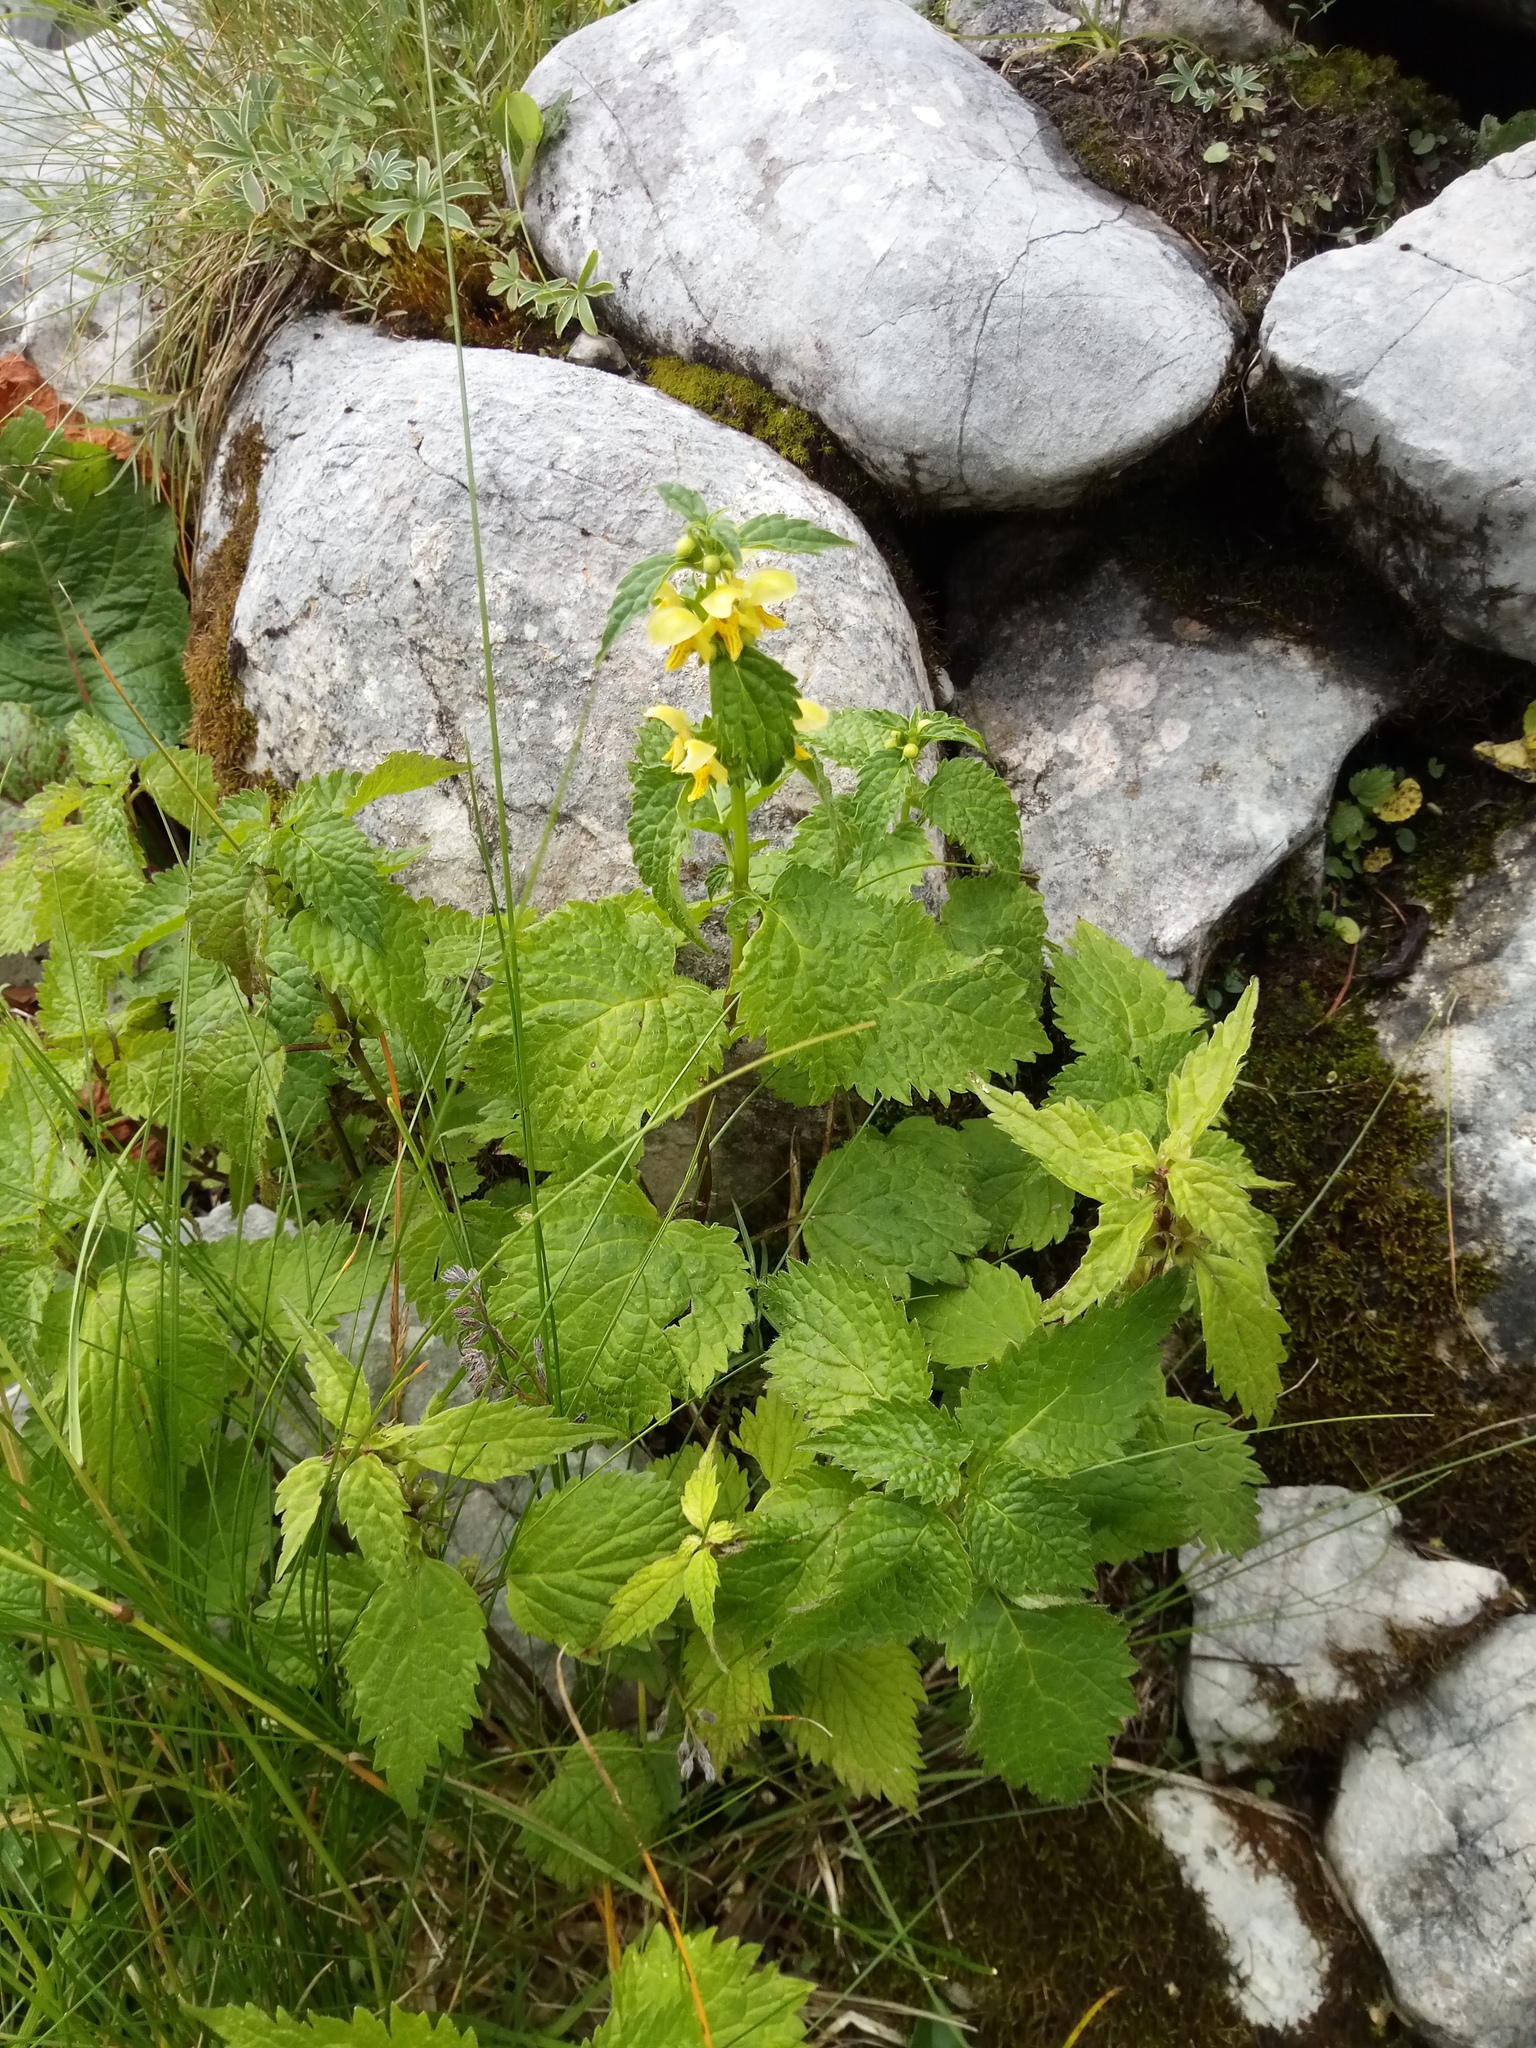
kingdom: Plantae
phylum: Tracheophyta
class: Magnoliopsida
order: Lamiales
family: Lamiaceae
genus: Lamium
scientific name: Lamium galeobdolon
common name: Yellow archangel
